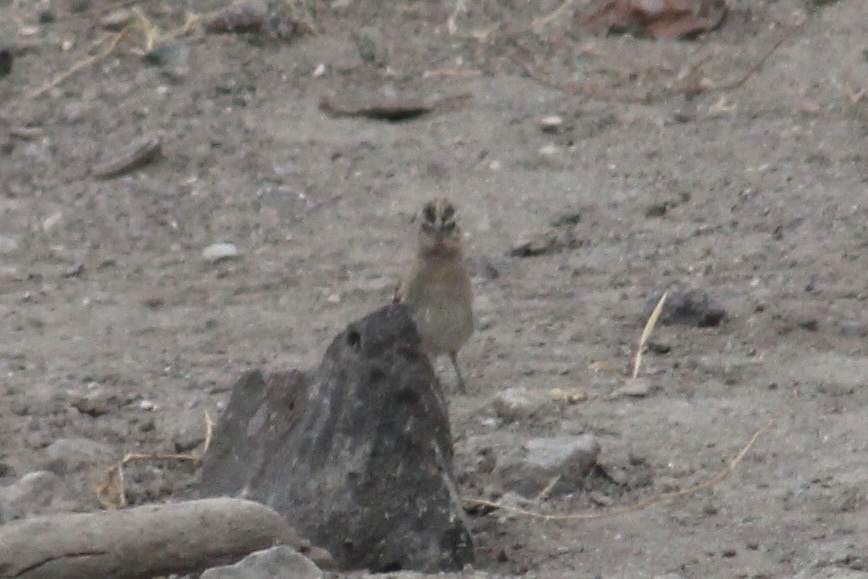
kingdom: Animalia
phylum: Chordata
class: Aves
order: Passeriformes
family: Viduidae
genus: Vidua
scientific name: Vidua paradisaea
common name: Long-tailed paradise whydah
